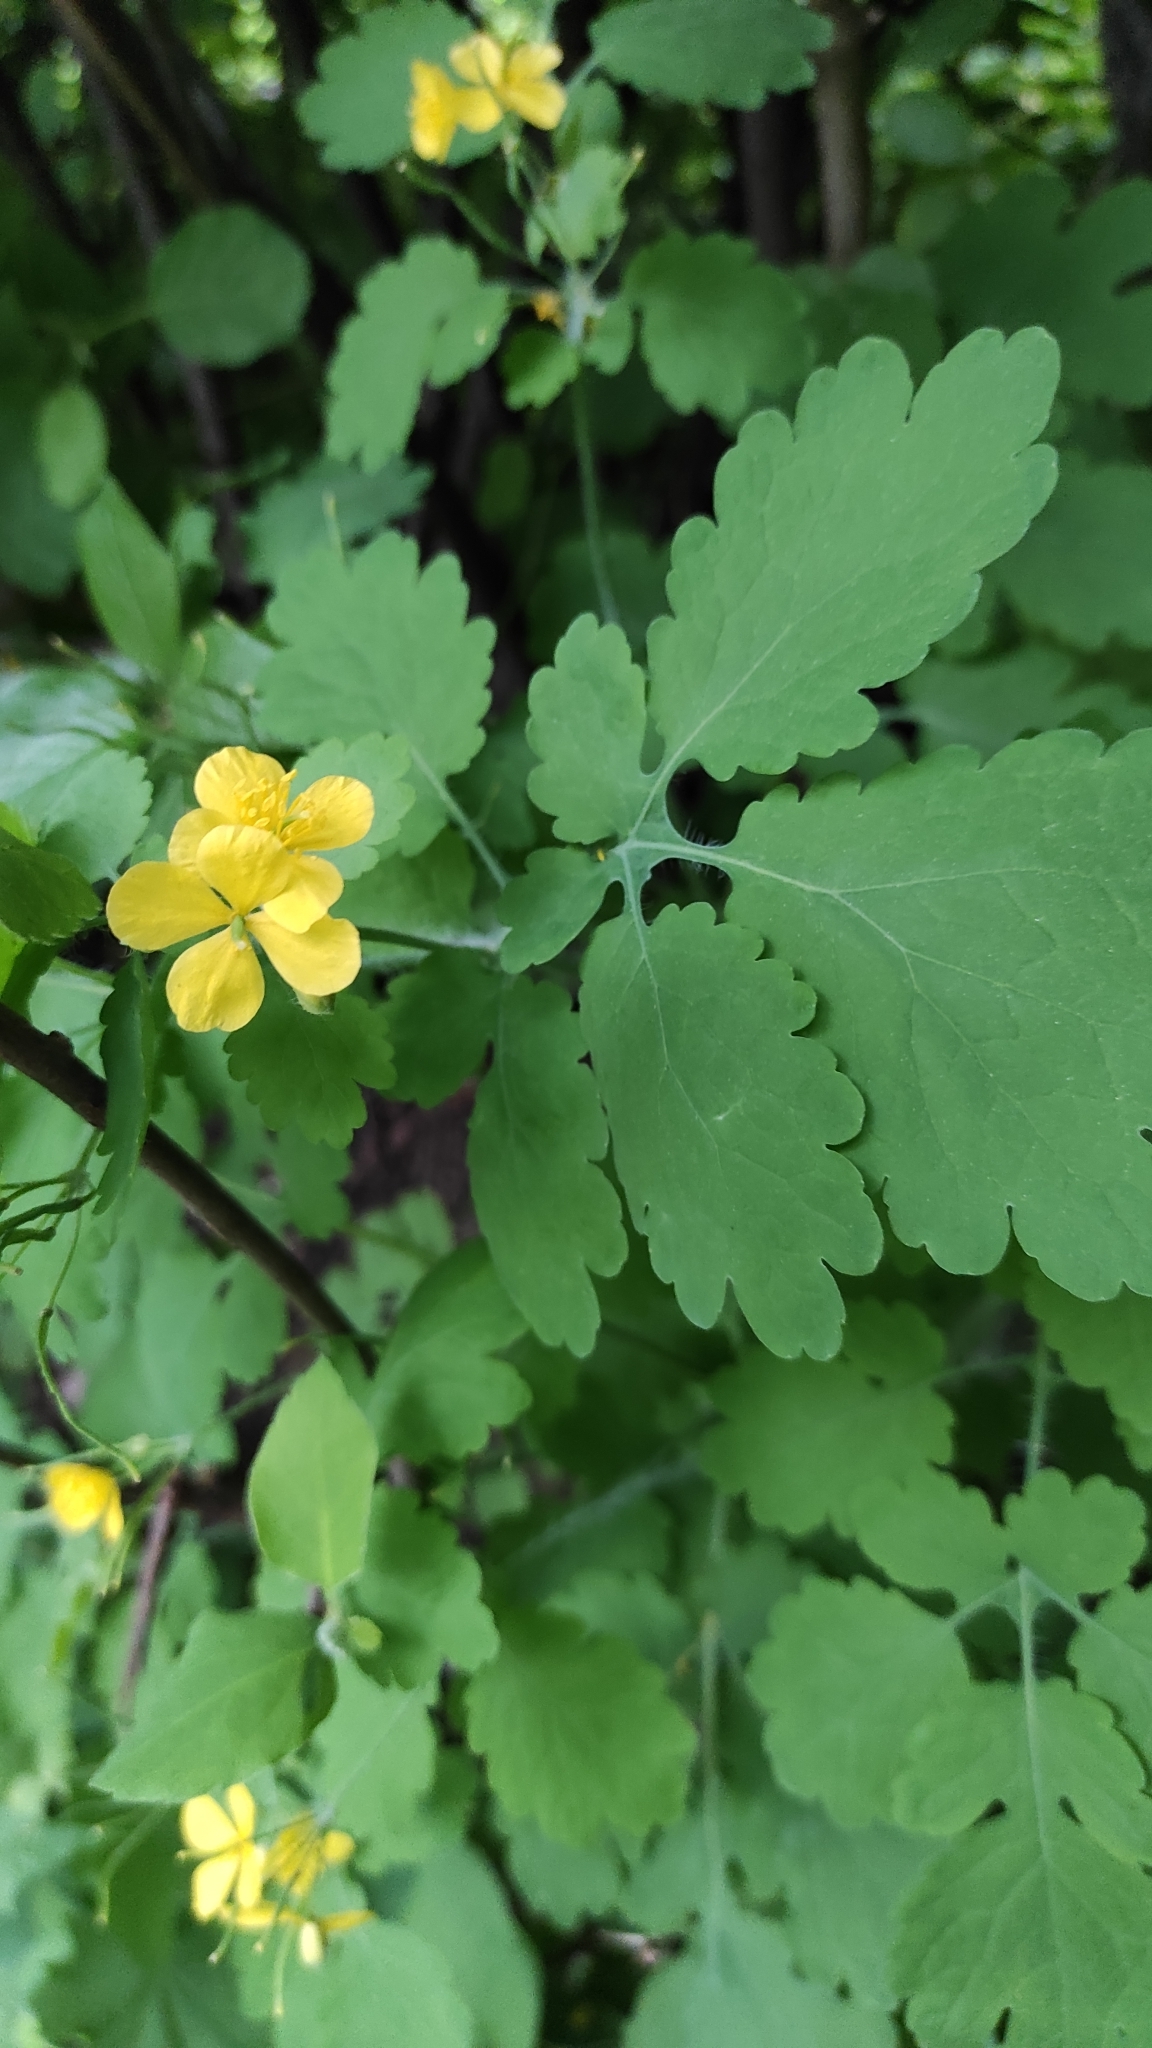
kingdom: Plantae
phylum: Tracheophyta
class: Magnoliopsida
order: Ranunculales
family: Papaveraceae
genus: Chelidonium
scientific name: Chelidonium majus
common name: Greater celandine
